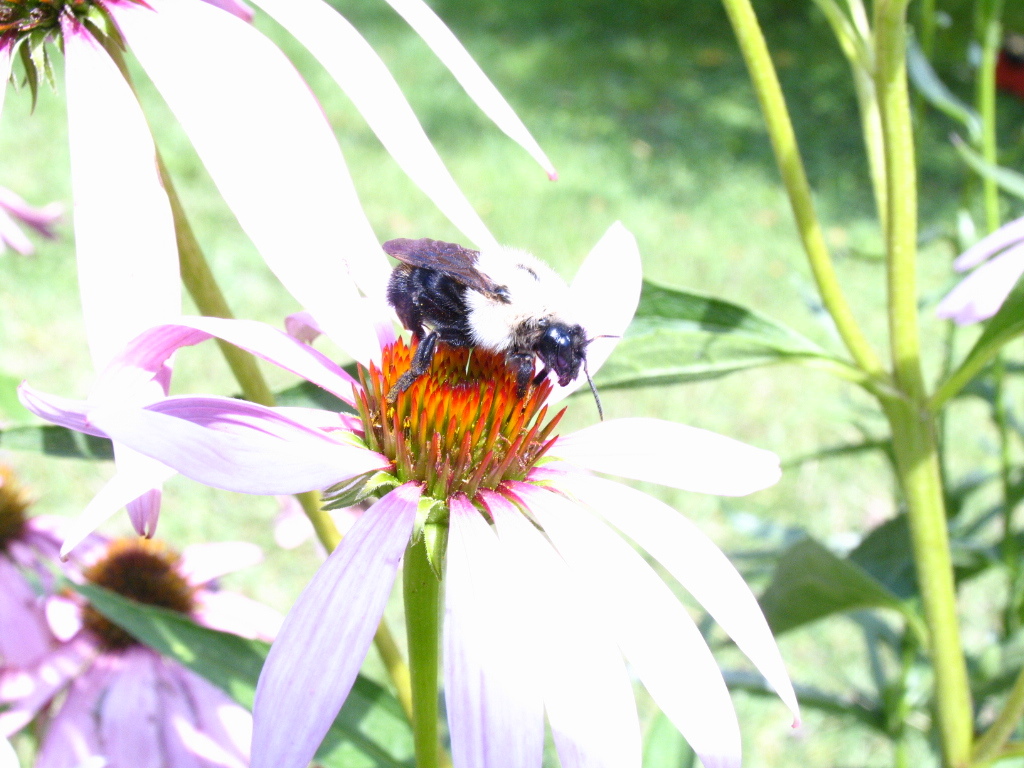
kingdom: Animalia
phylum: Arthropoda
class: Insecta
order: Hymenoptera
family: Apidae
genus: Bombus
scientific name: Bombus citrinus
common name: Lemon cuckoo bumble bee
